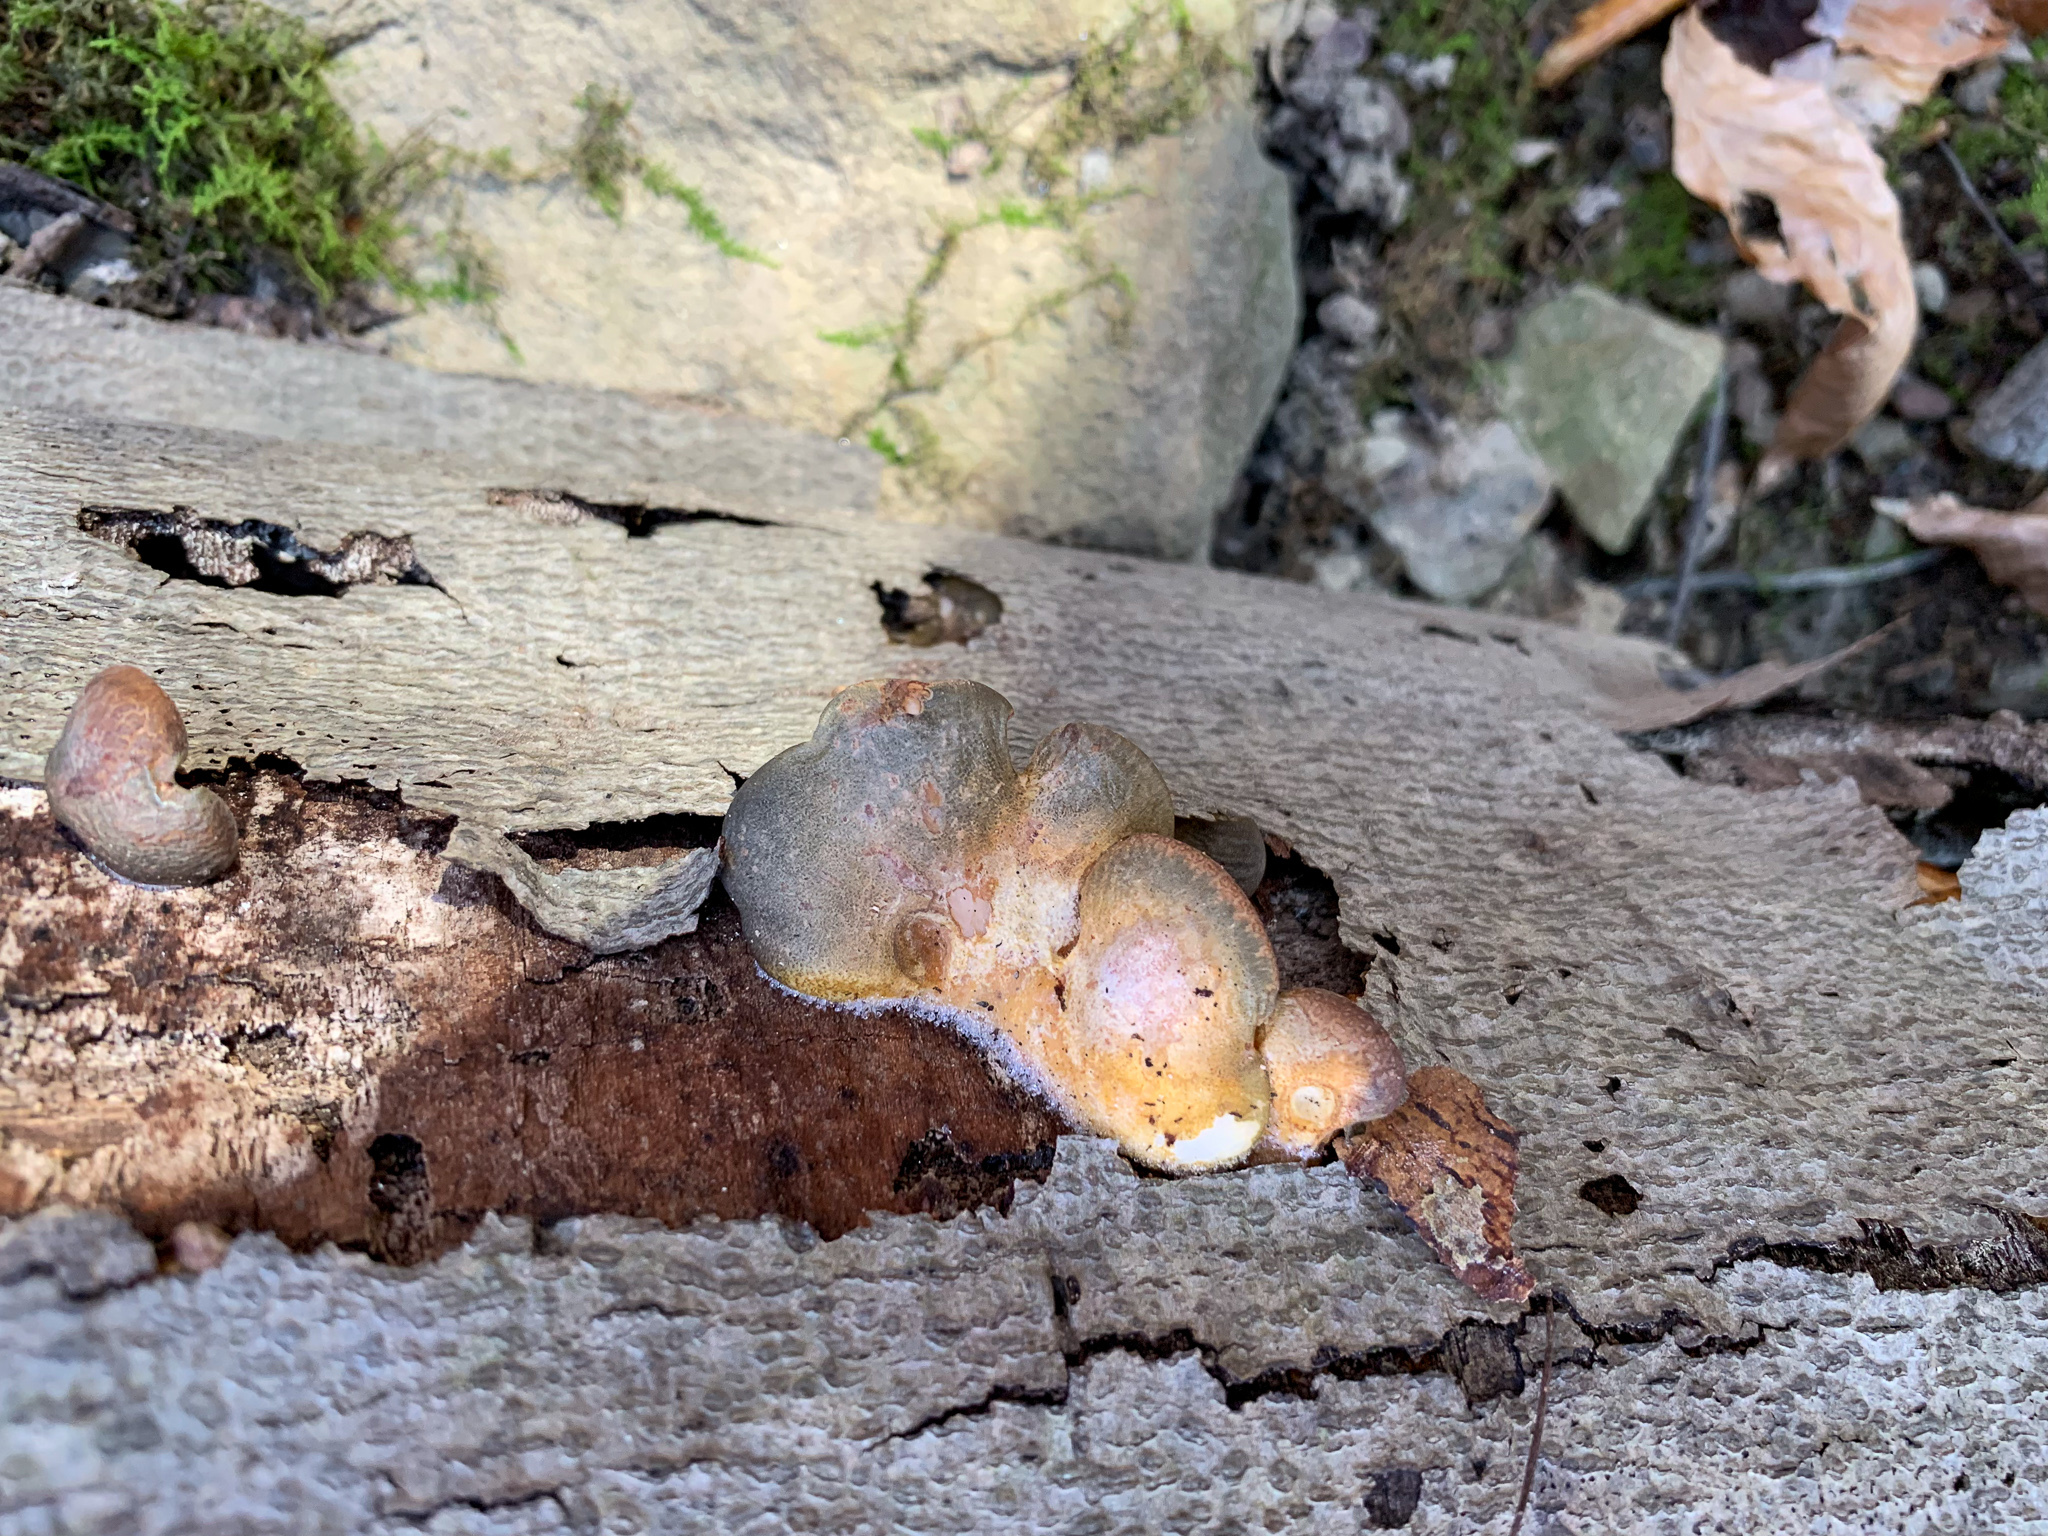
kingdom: Fungi
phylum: Basidiomycota
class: Agaricomycetes
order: Agaricales
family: Sarcomyxaceae
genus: Sarcomyxa
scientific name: Sarcomyxa serotina
